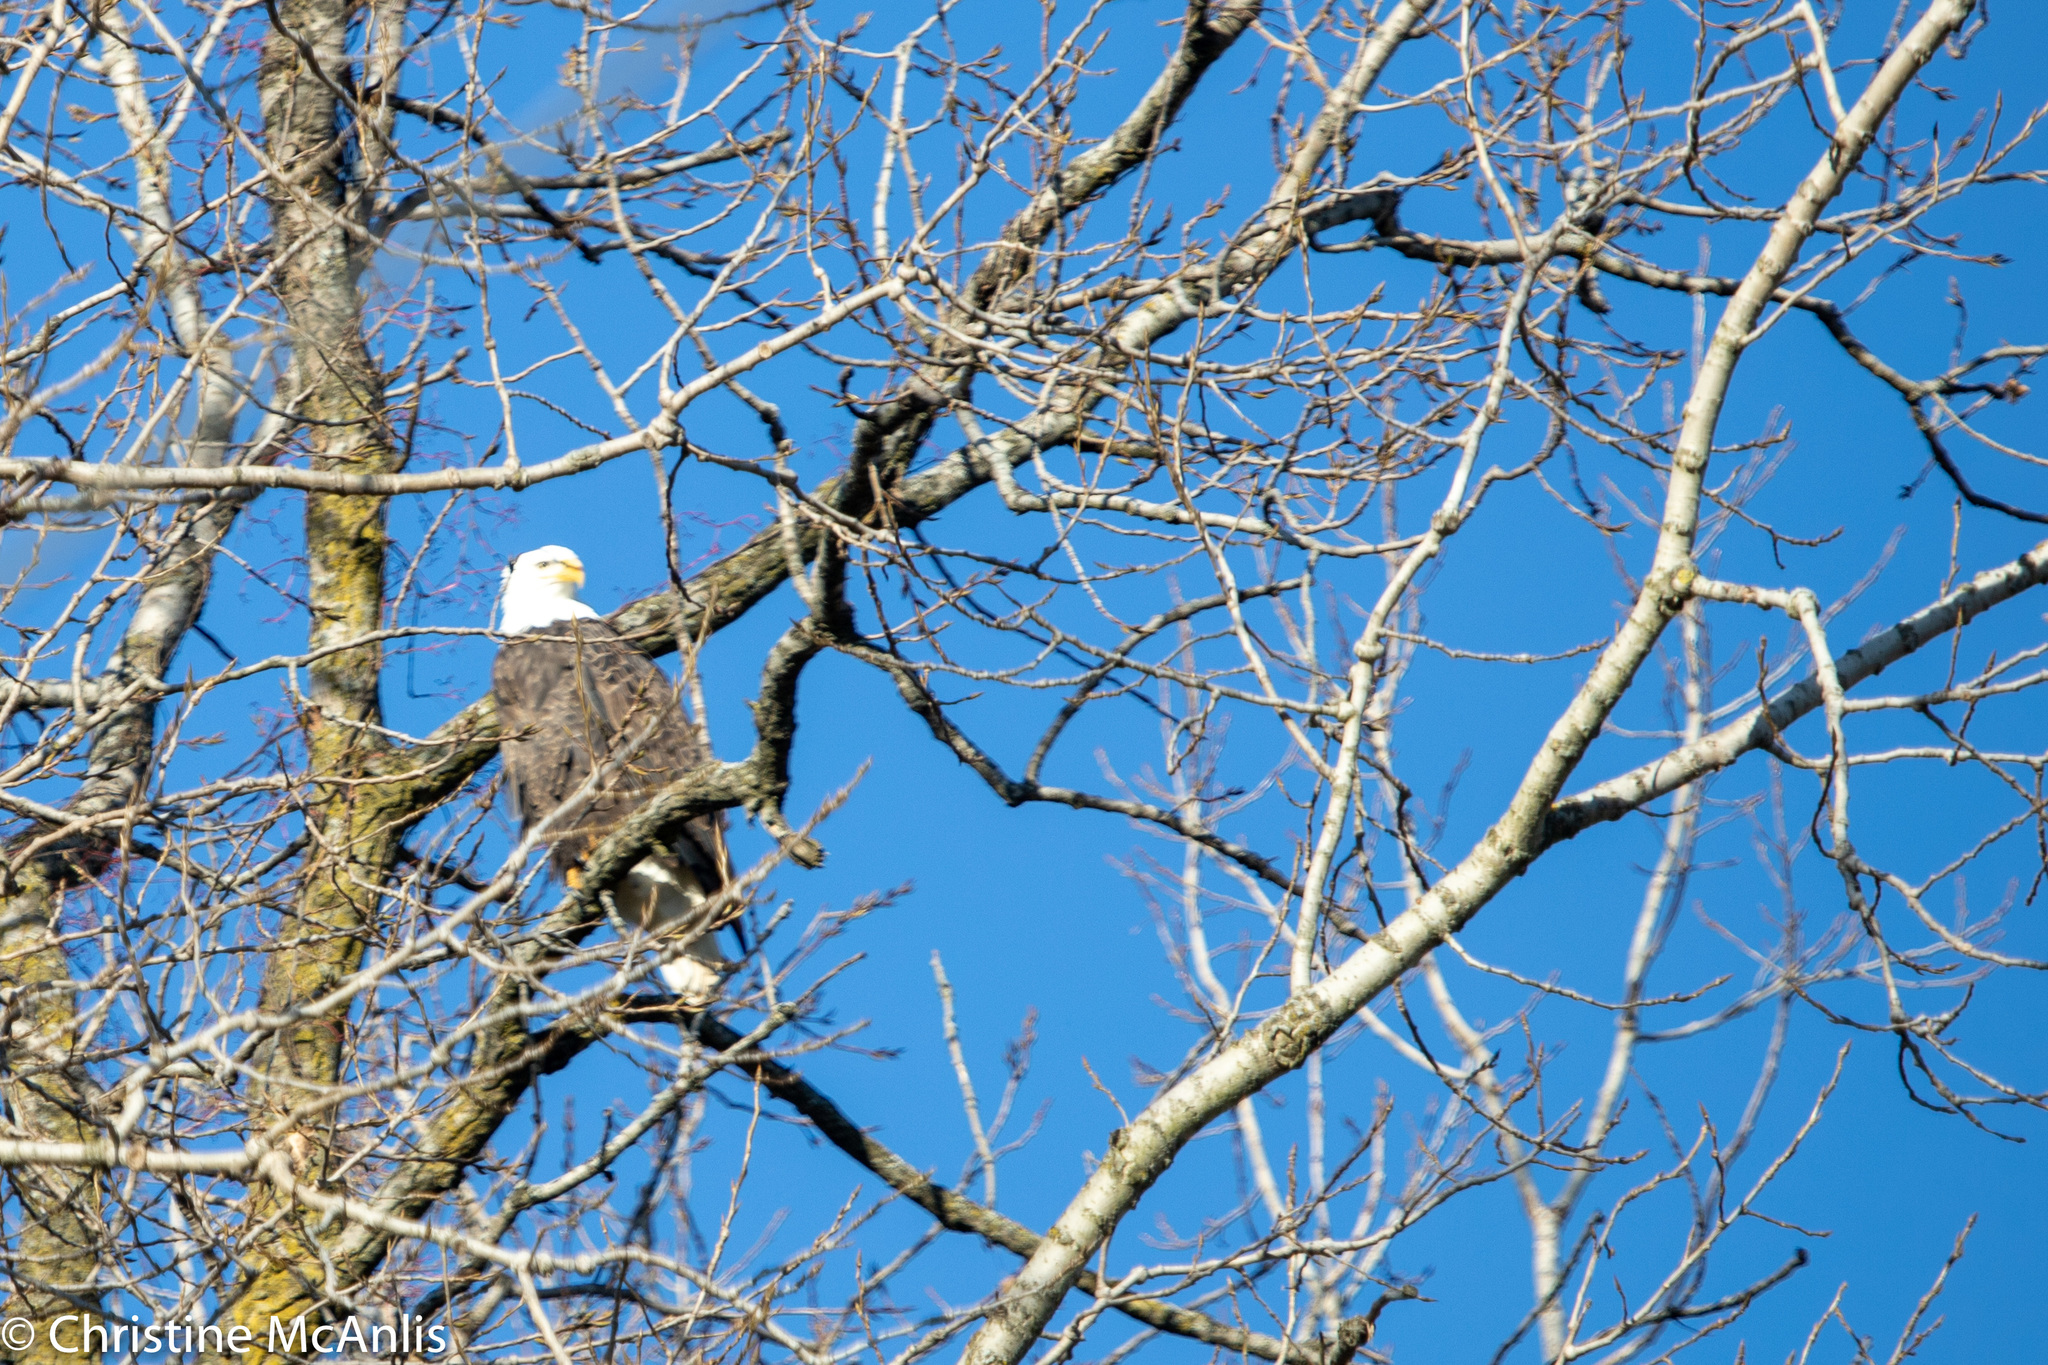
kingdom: Animalia
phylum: Chordata
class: Aves
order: Accipitriformes
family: Accipitridae
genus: Haliaeetus
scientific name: Haliaeetus leucocephalus
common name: Bald eagle
